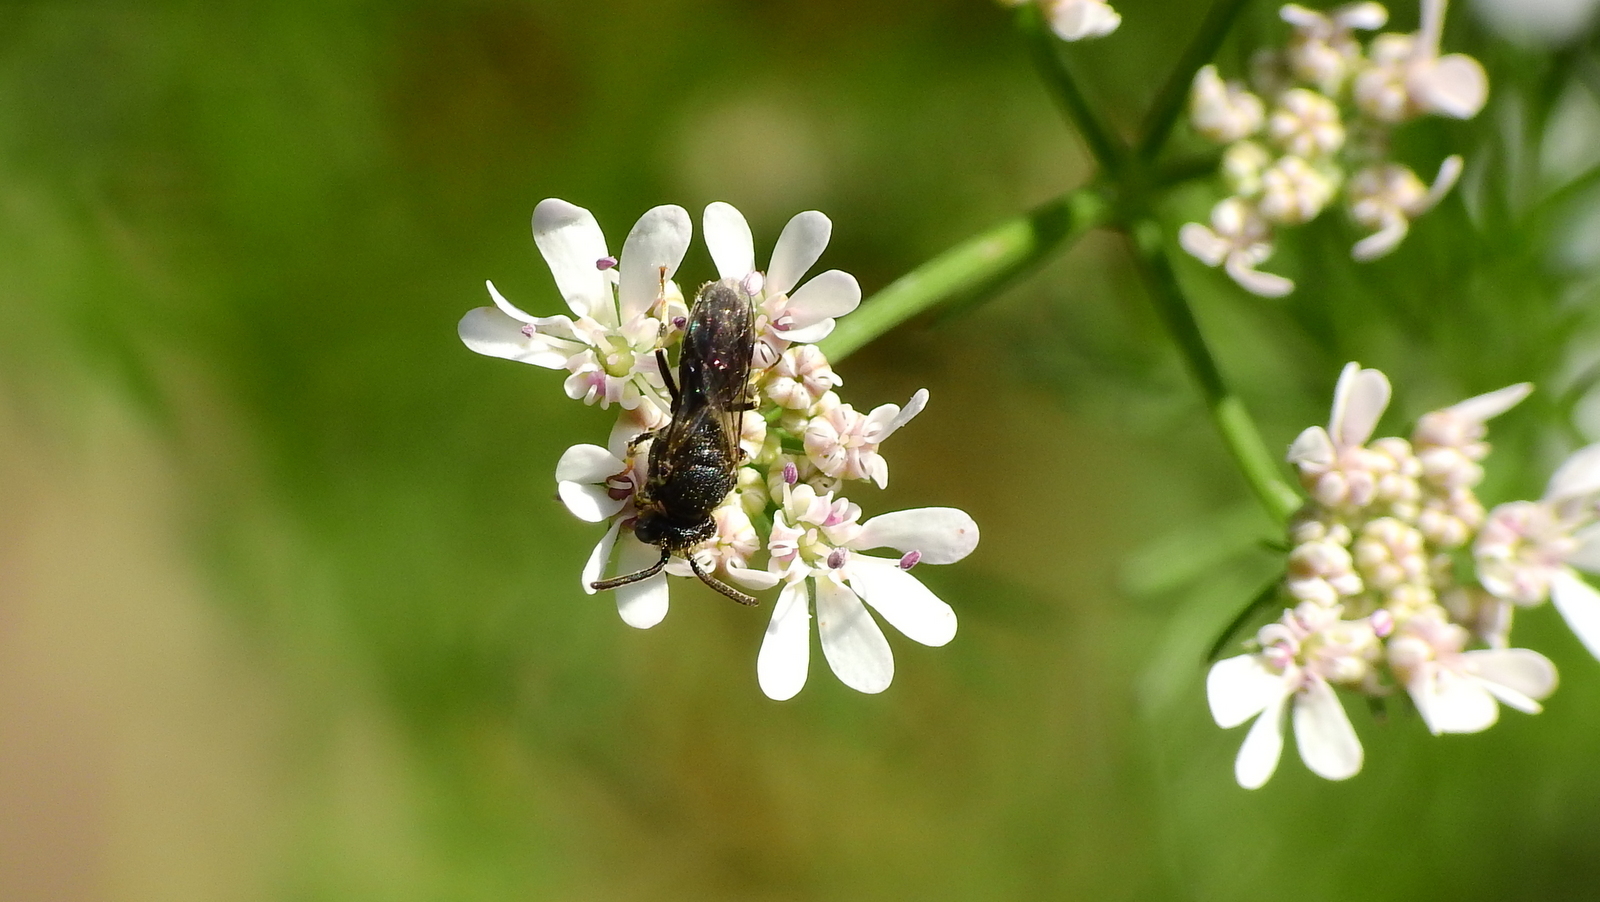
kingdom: Animalia
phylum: Arthropoda
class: Insecta
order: Hymenoptera
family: Colletidae
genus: Hylaeus
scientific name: Hylaeus punctatus
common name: Punctate masked bee
